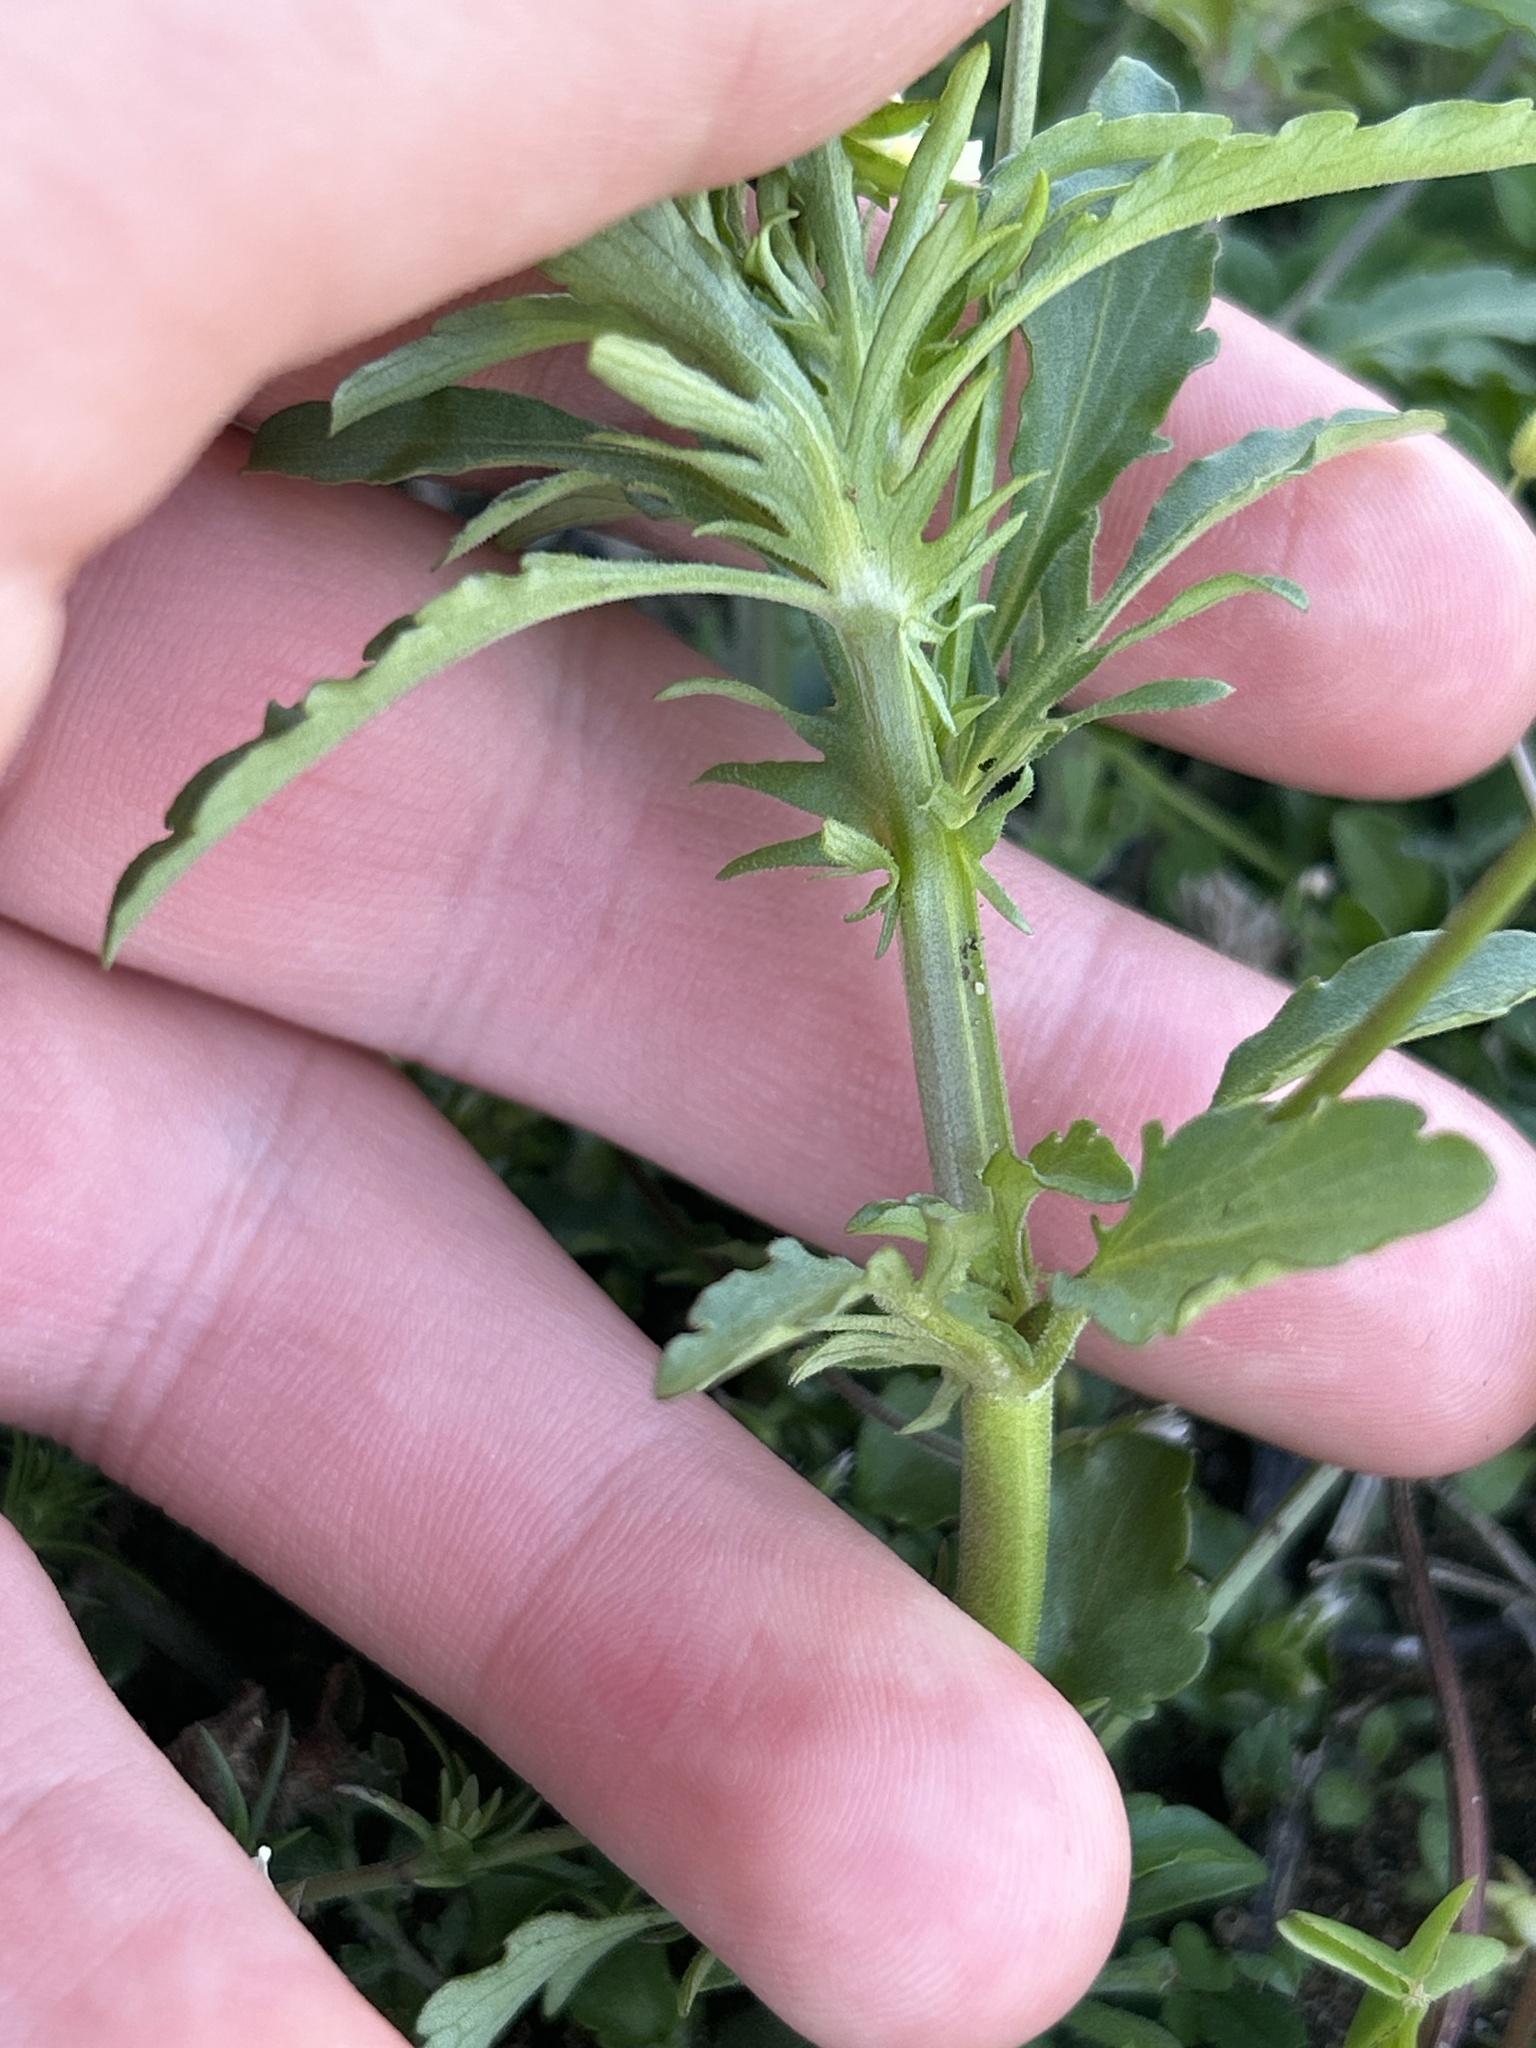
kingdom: Plantae
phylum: Tracheophyta
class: Magnoliopsida
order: Malpighiales
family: Violaceae
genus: Viola
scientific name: Viola arvensis
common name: Field pansy
